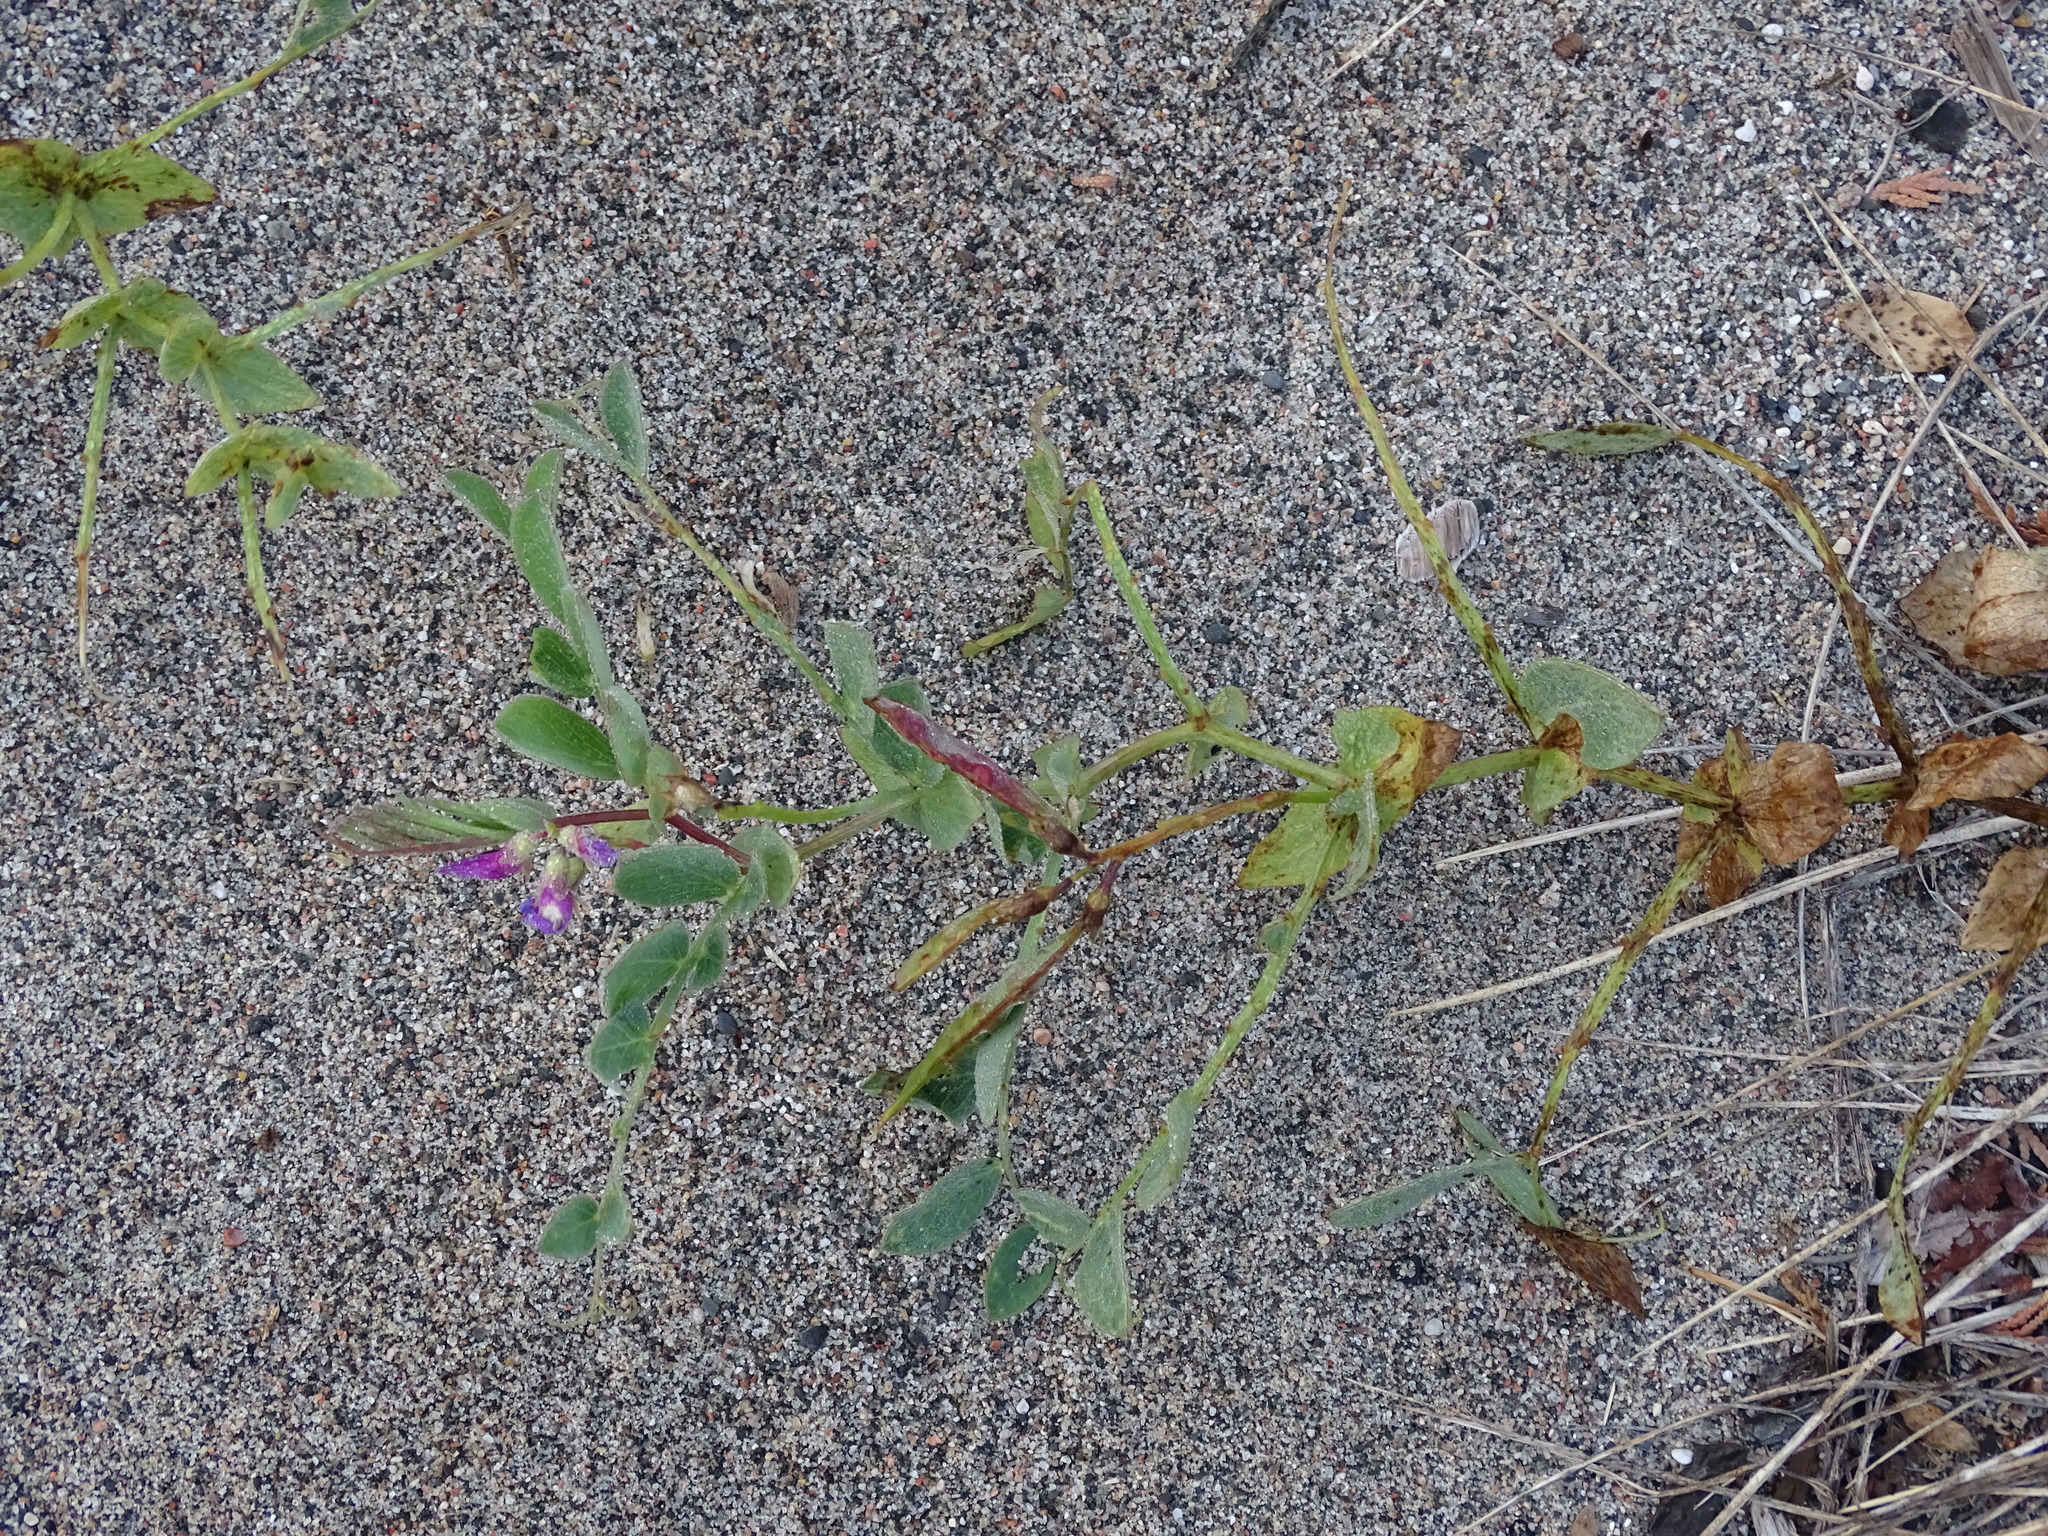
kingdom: Plantae
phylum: Tracheophyta
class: Magnoliopsida
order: Fabales
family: Fabaceae
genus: Lathyrus
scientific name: Lathyrus japonicus
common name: Sea pea
